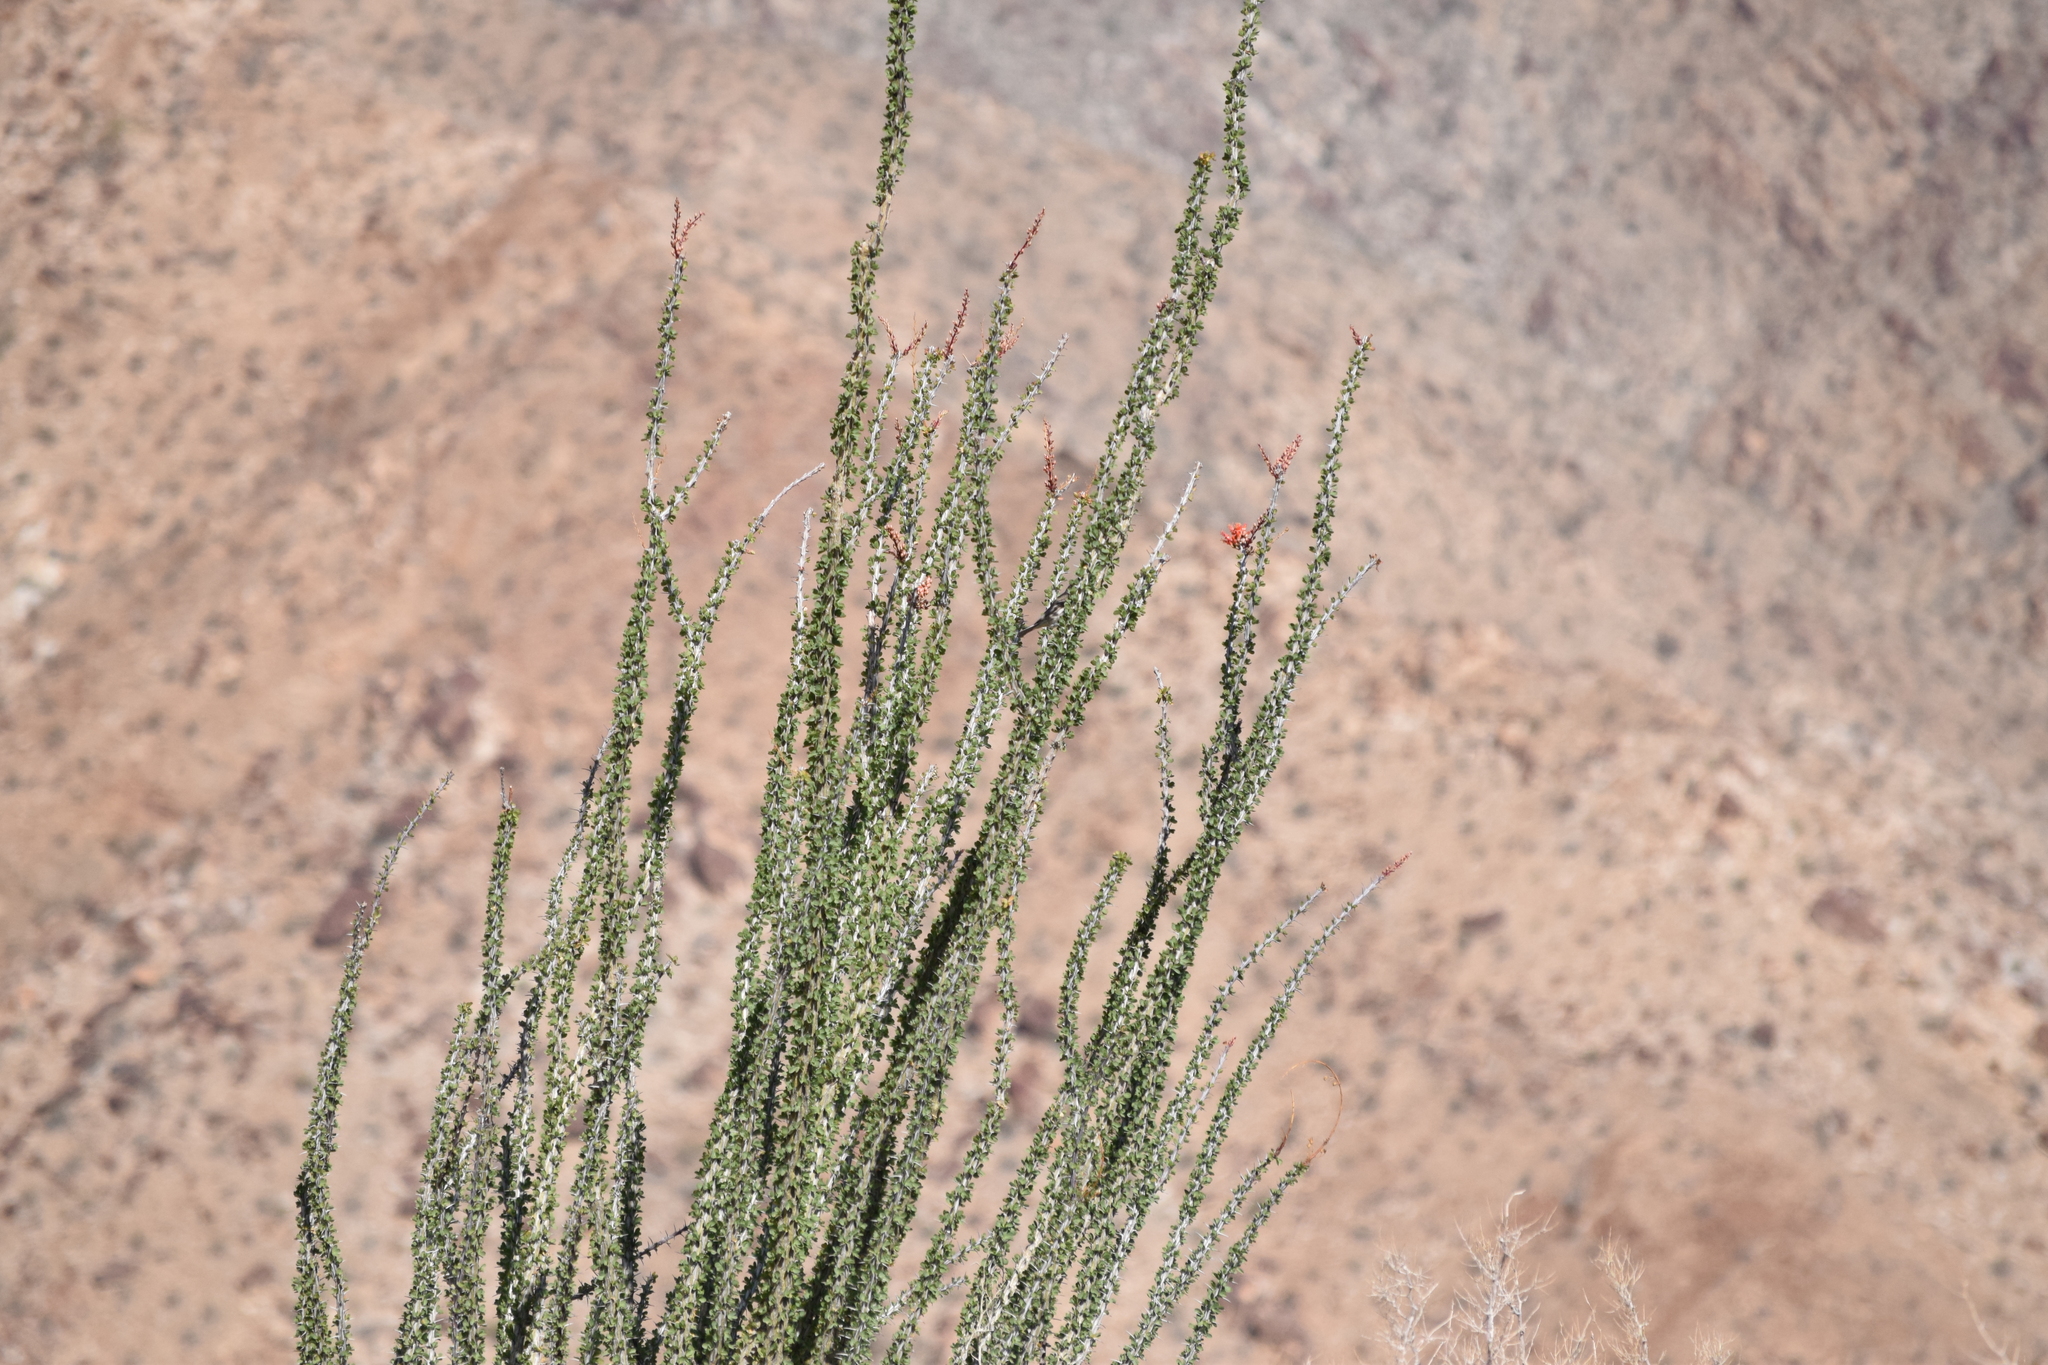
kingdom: Plantae
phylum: Tracheophyta
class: Magnoliopsida
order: Ericales
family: Fouquieriaceae
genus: Fouquieria
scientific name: Fouquieria splendens
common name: Vine-cactus
